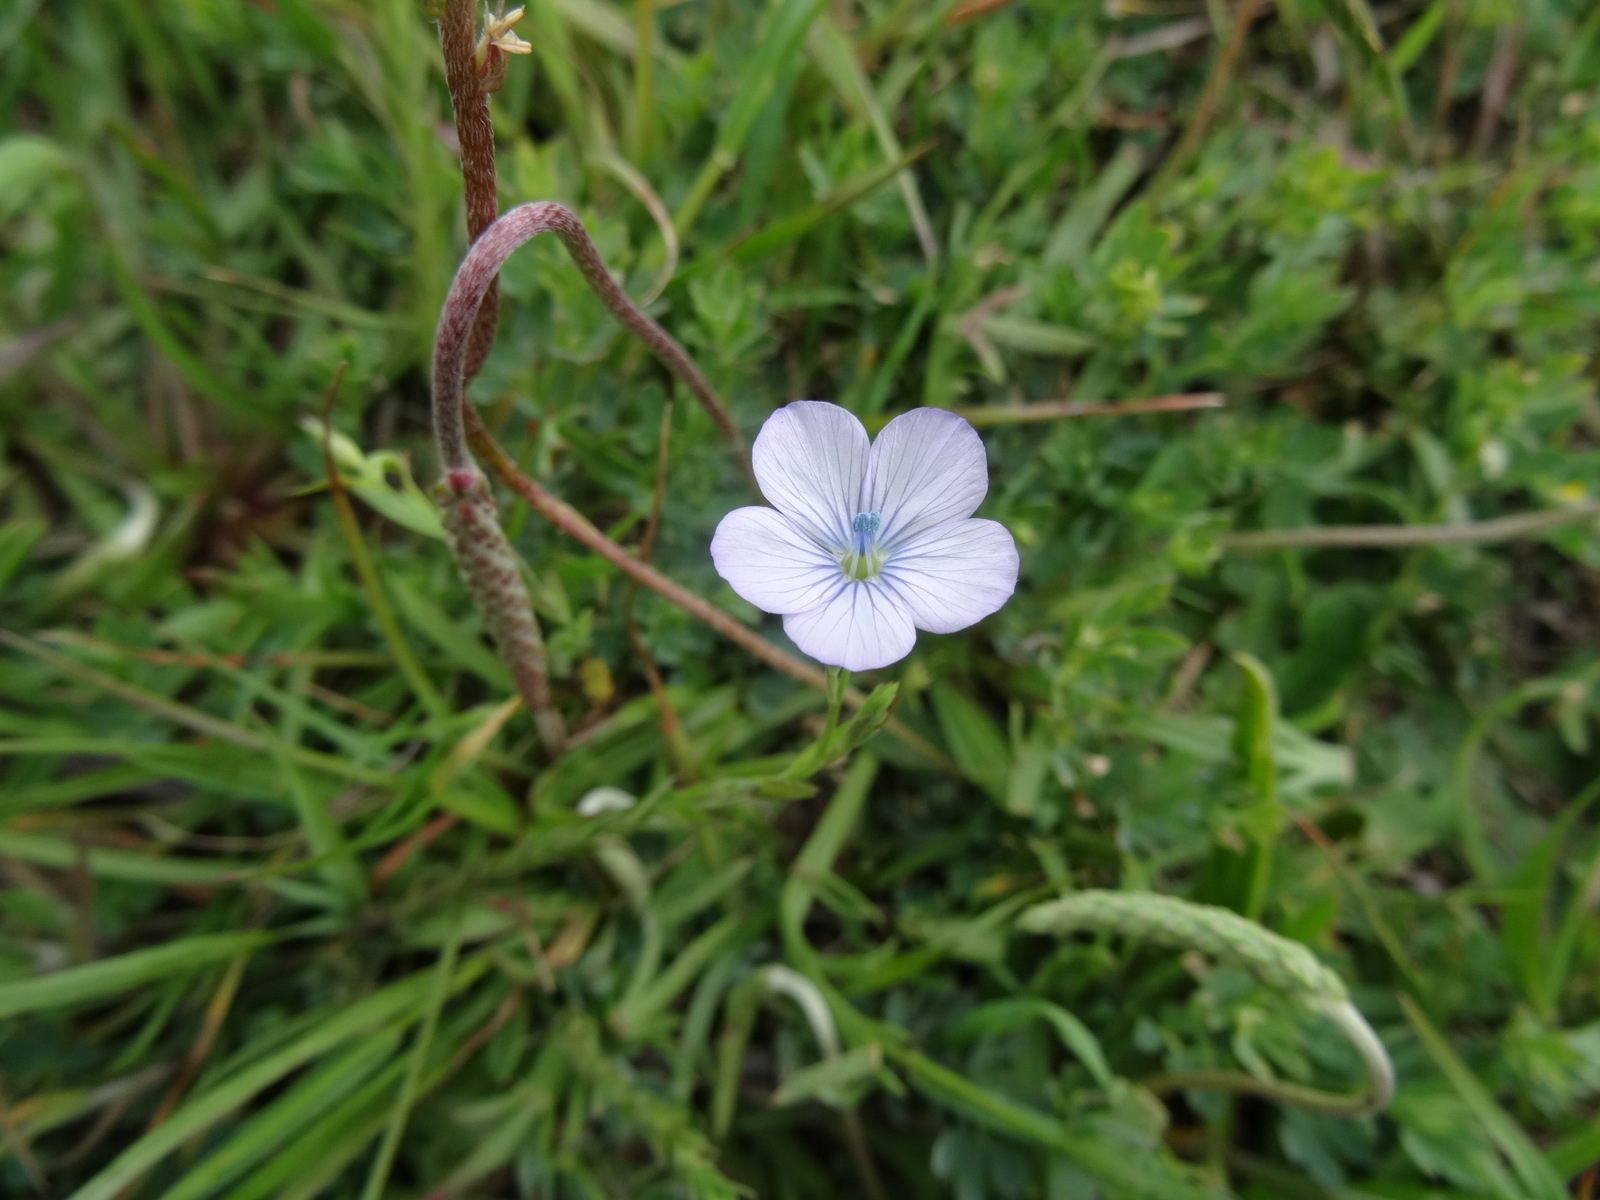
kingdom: Plantae
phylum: Tracheophyta
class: Magnoliopsida
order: Malpighiales
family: Linaceae
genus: Linum
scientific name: Linum bienne
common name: Pale flax
